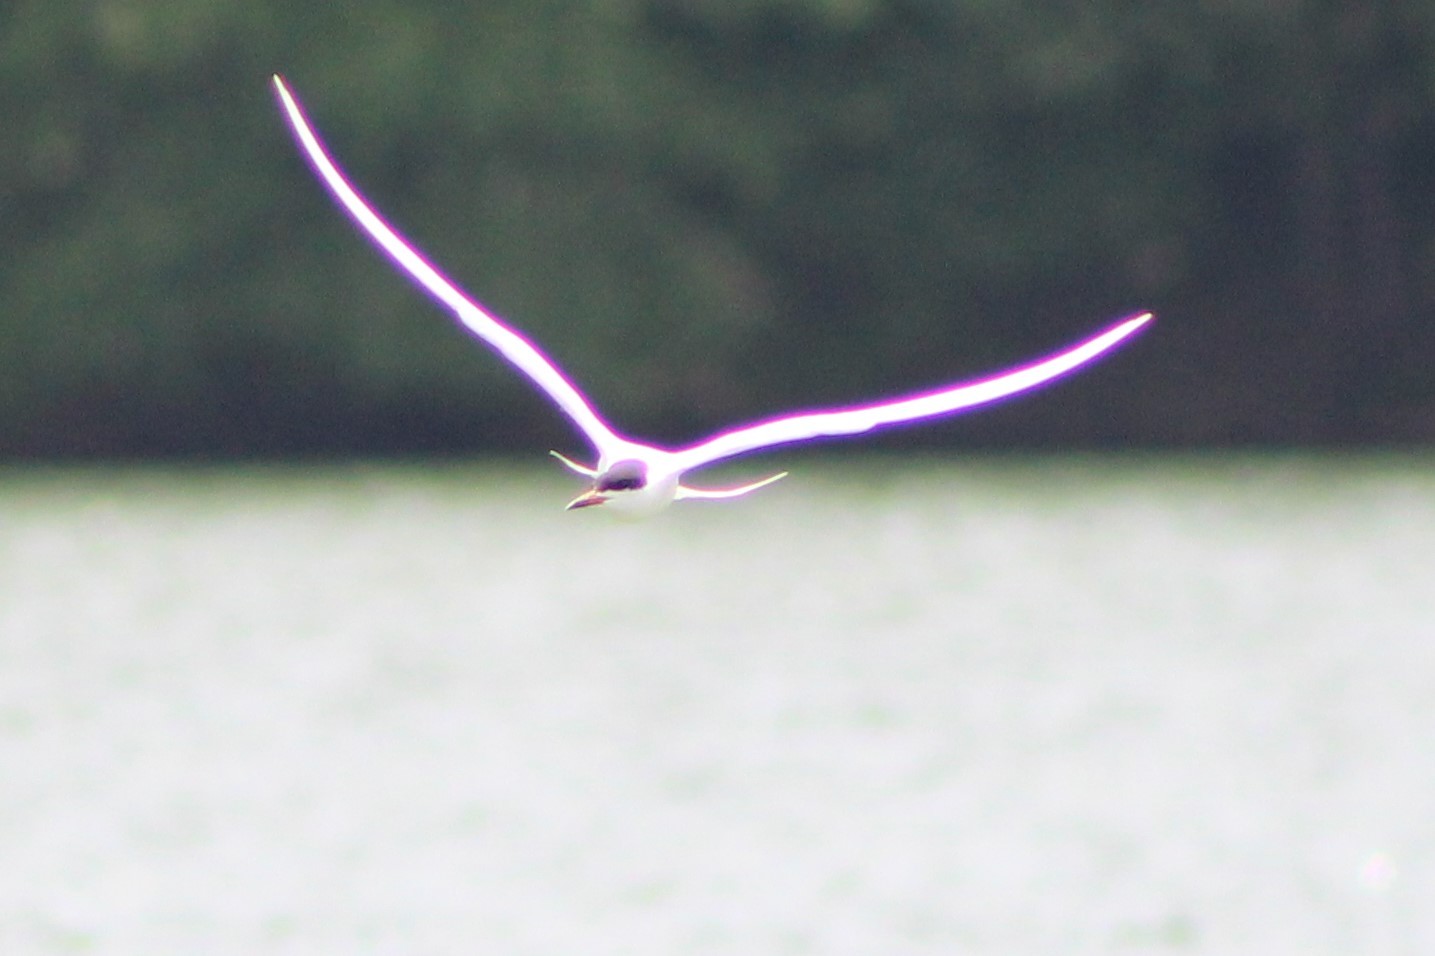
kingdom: Animalia
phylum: Chordata
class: Aves
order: Charadriiformes
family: Laridae
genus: Sterna
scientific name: Sterna forsteri
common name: Forster's tern
